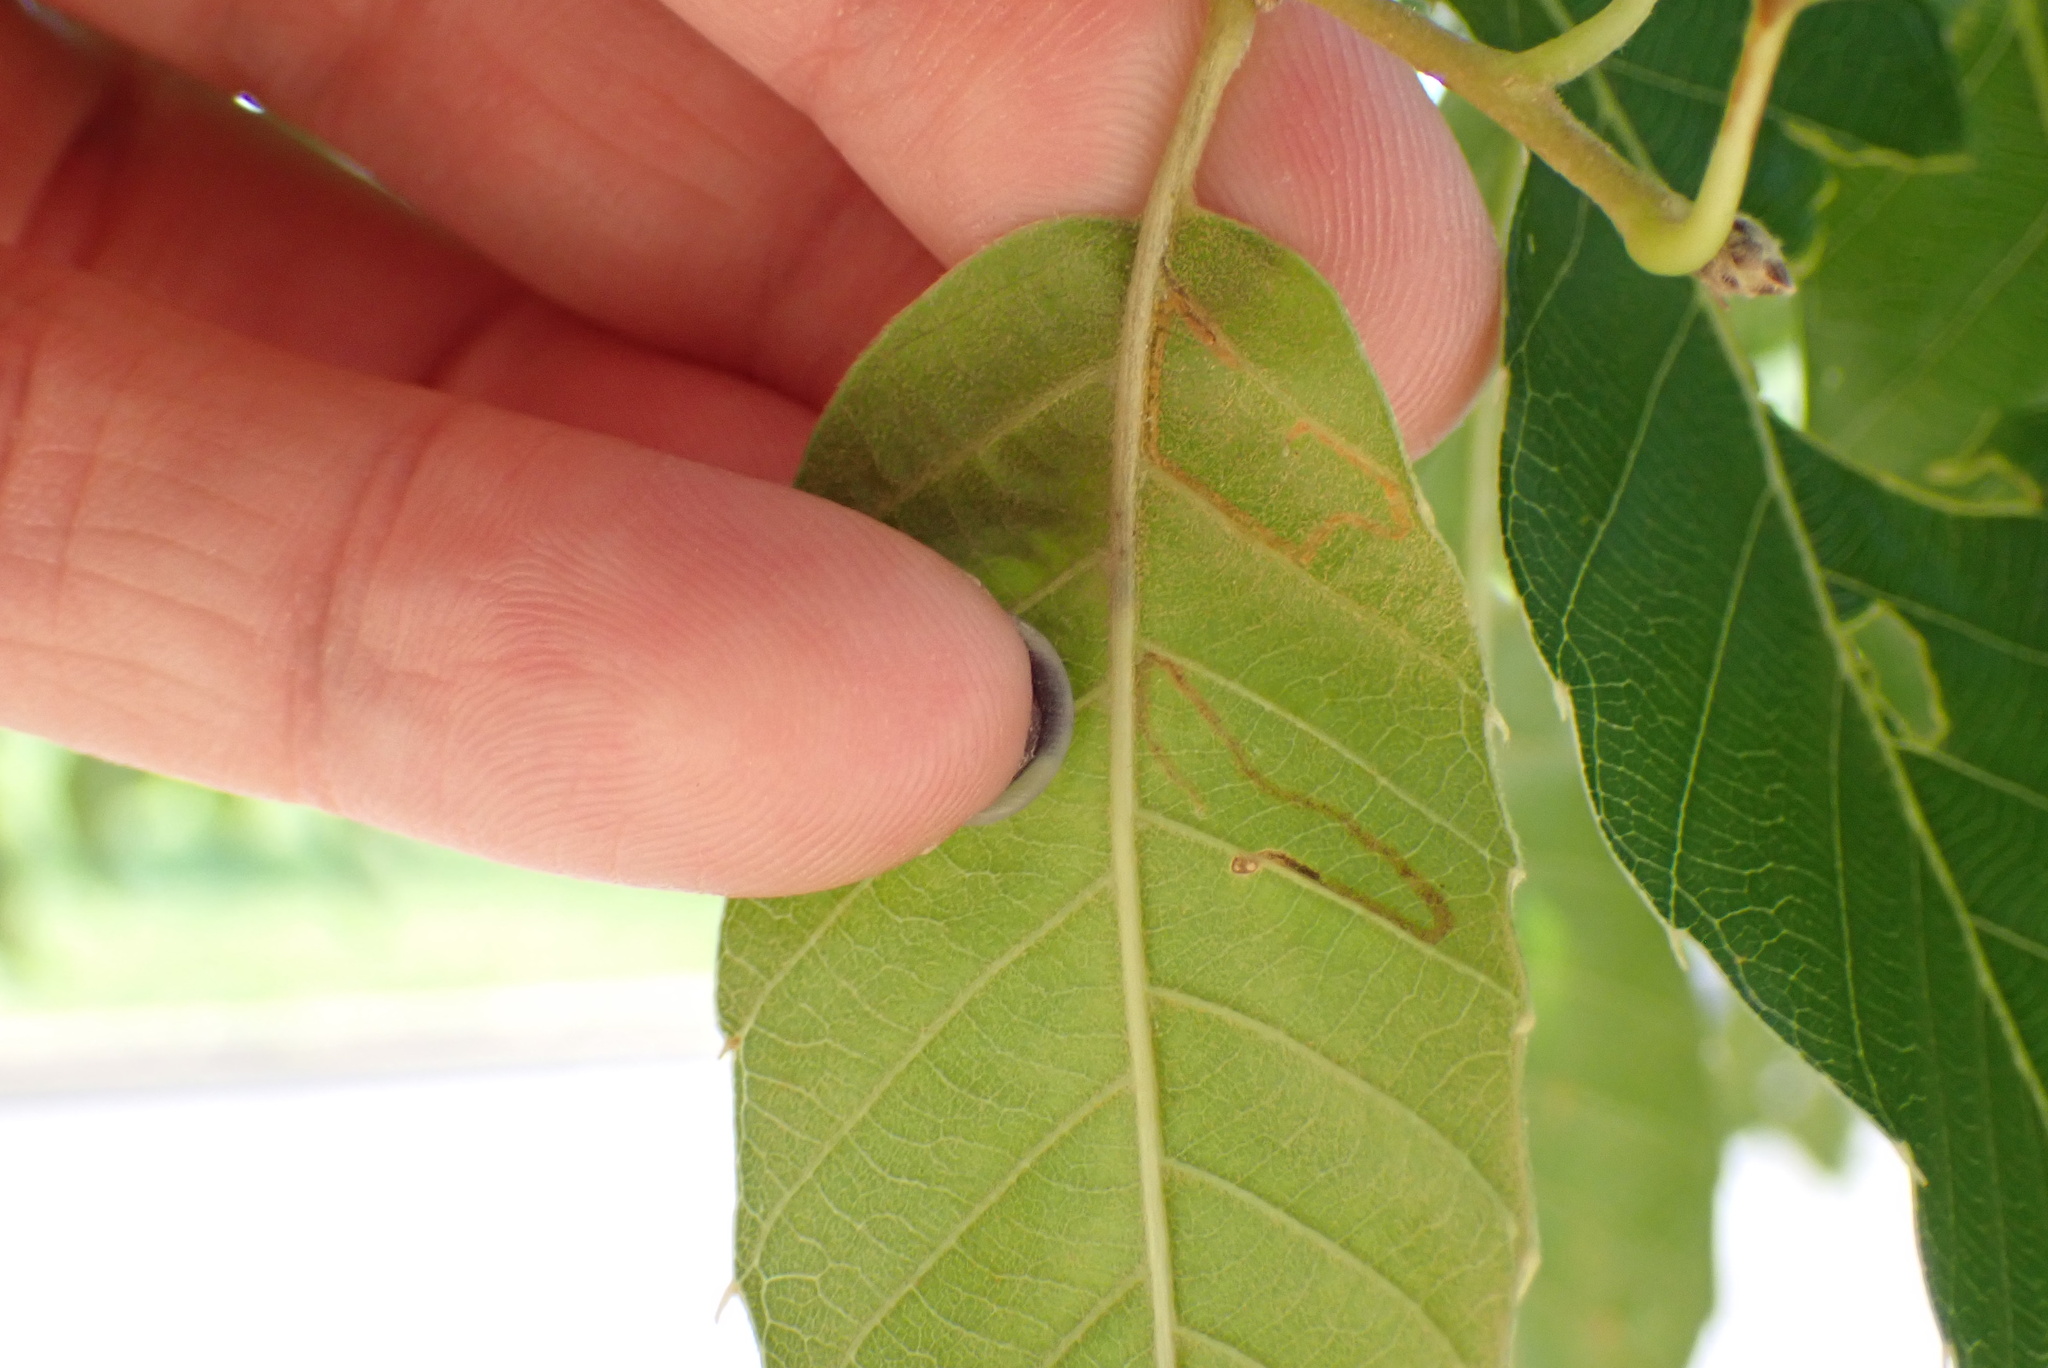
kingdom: Animalia
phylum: Arthropoda
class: Insecta
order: Lepidoptera
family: Gracillariidae
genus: Neurobathra
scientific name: Neurobathra strigifinitella
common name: Finite-channeled leafminer moth
